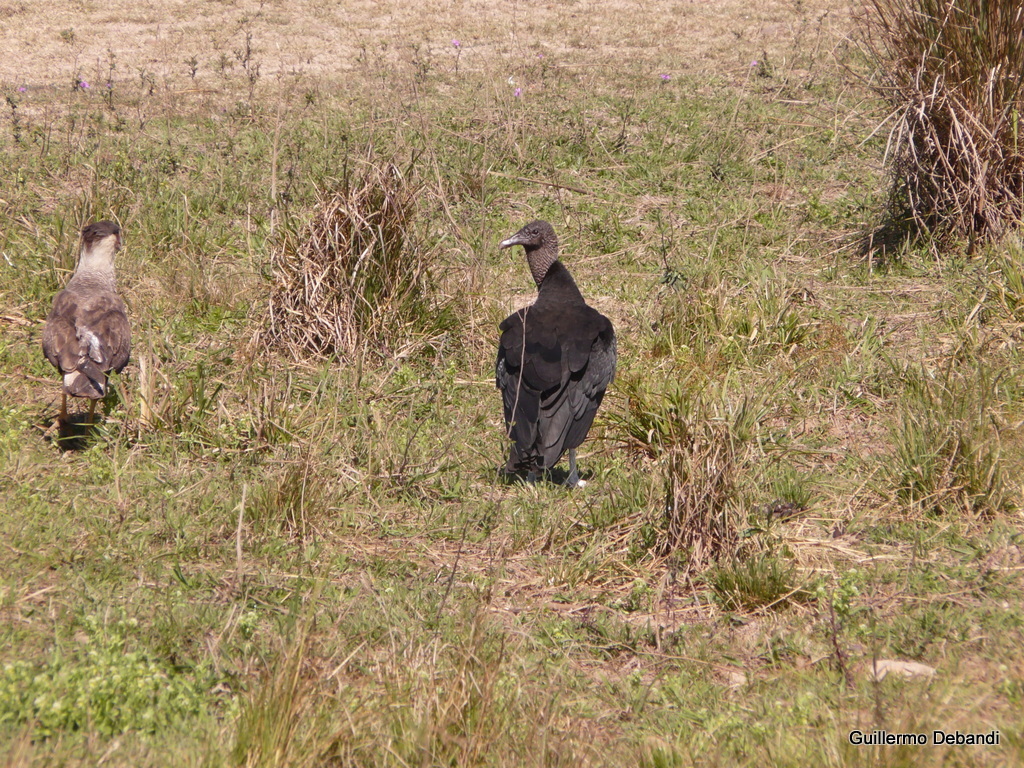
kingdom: Animalia
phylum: Chordata
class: Aves
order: Accipitriformes
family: Cathartidae
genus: Coragyps
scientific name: Coragyps atratus
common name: Black vulture
